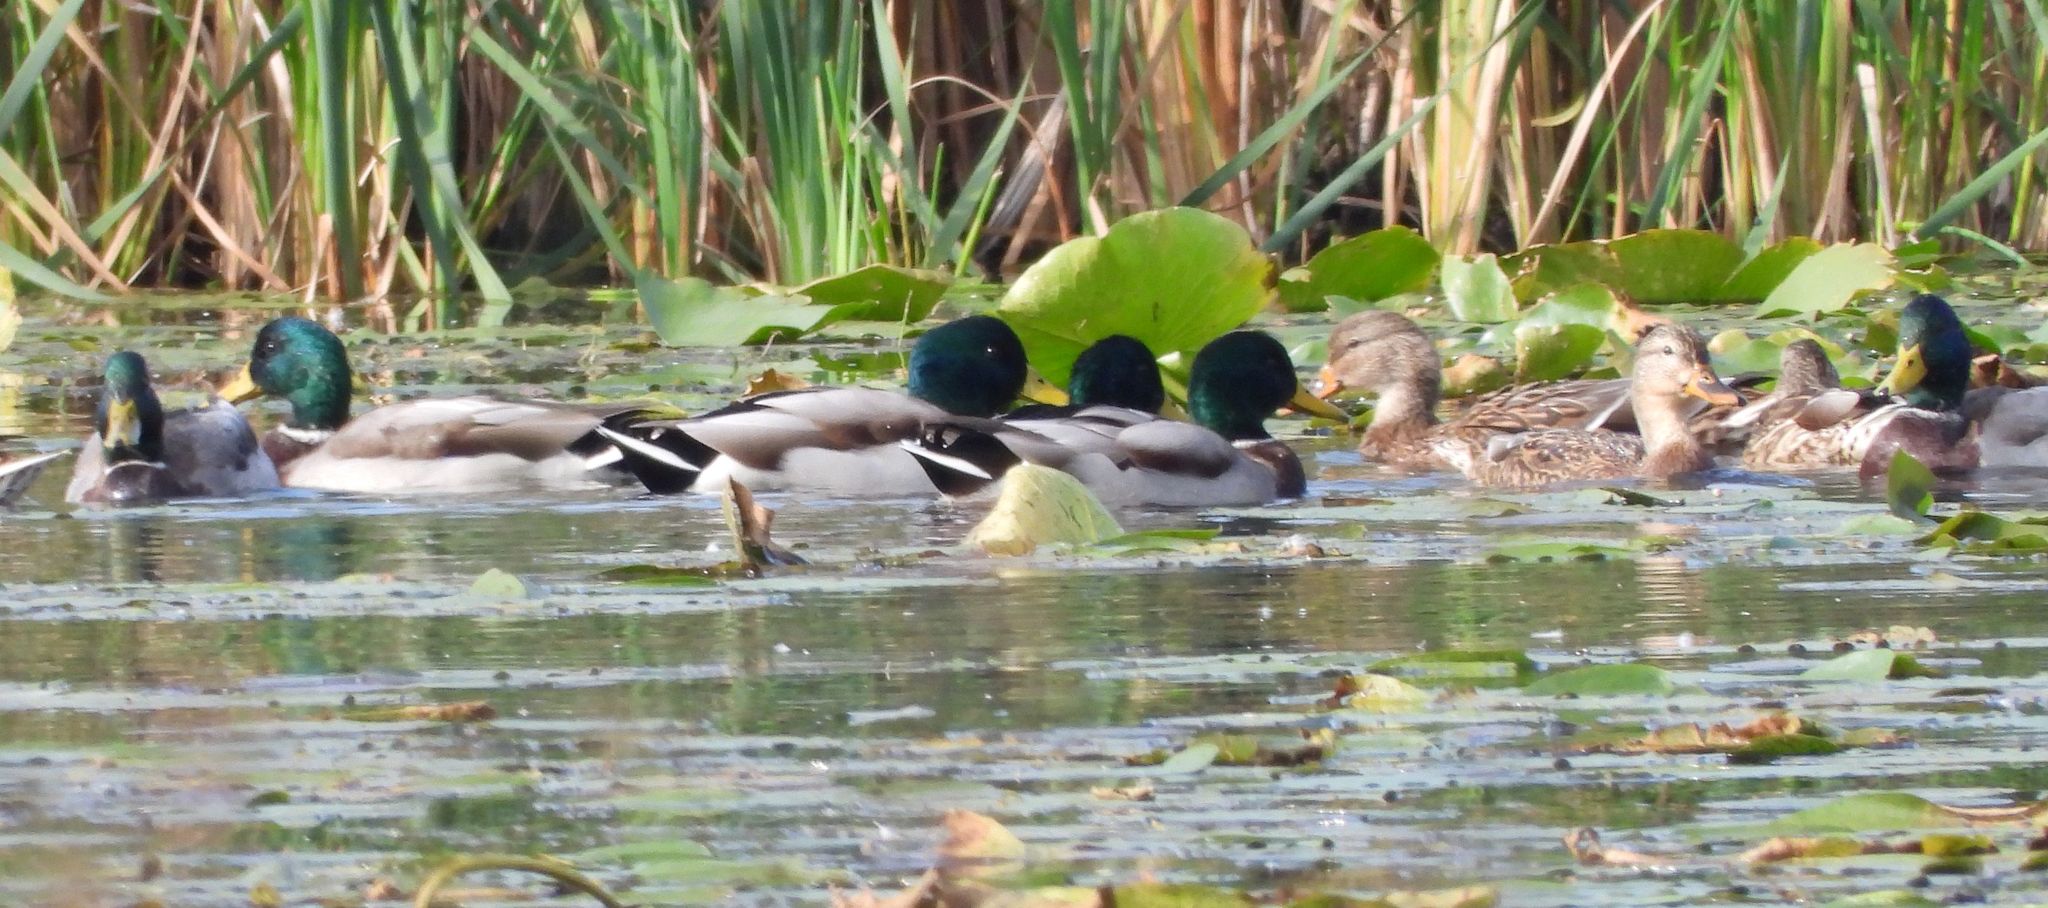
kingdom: Animalia
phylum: Chordata
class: Aves
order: Anseriformes
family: Anatidae
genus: Anas
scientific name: Anas platyrhynchos
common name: Mallard
